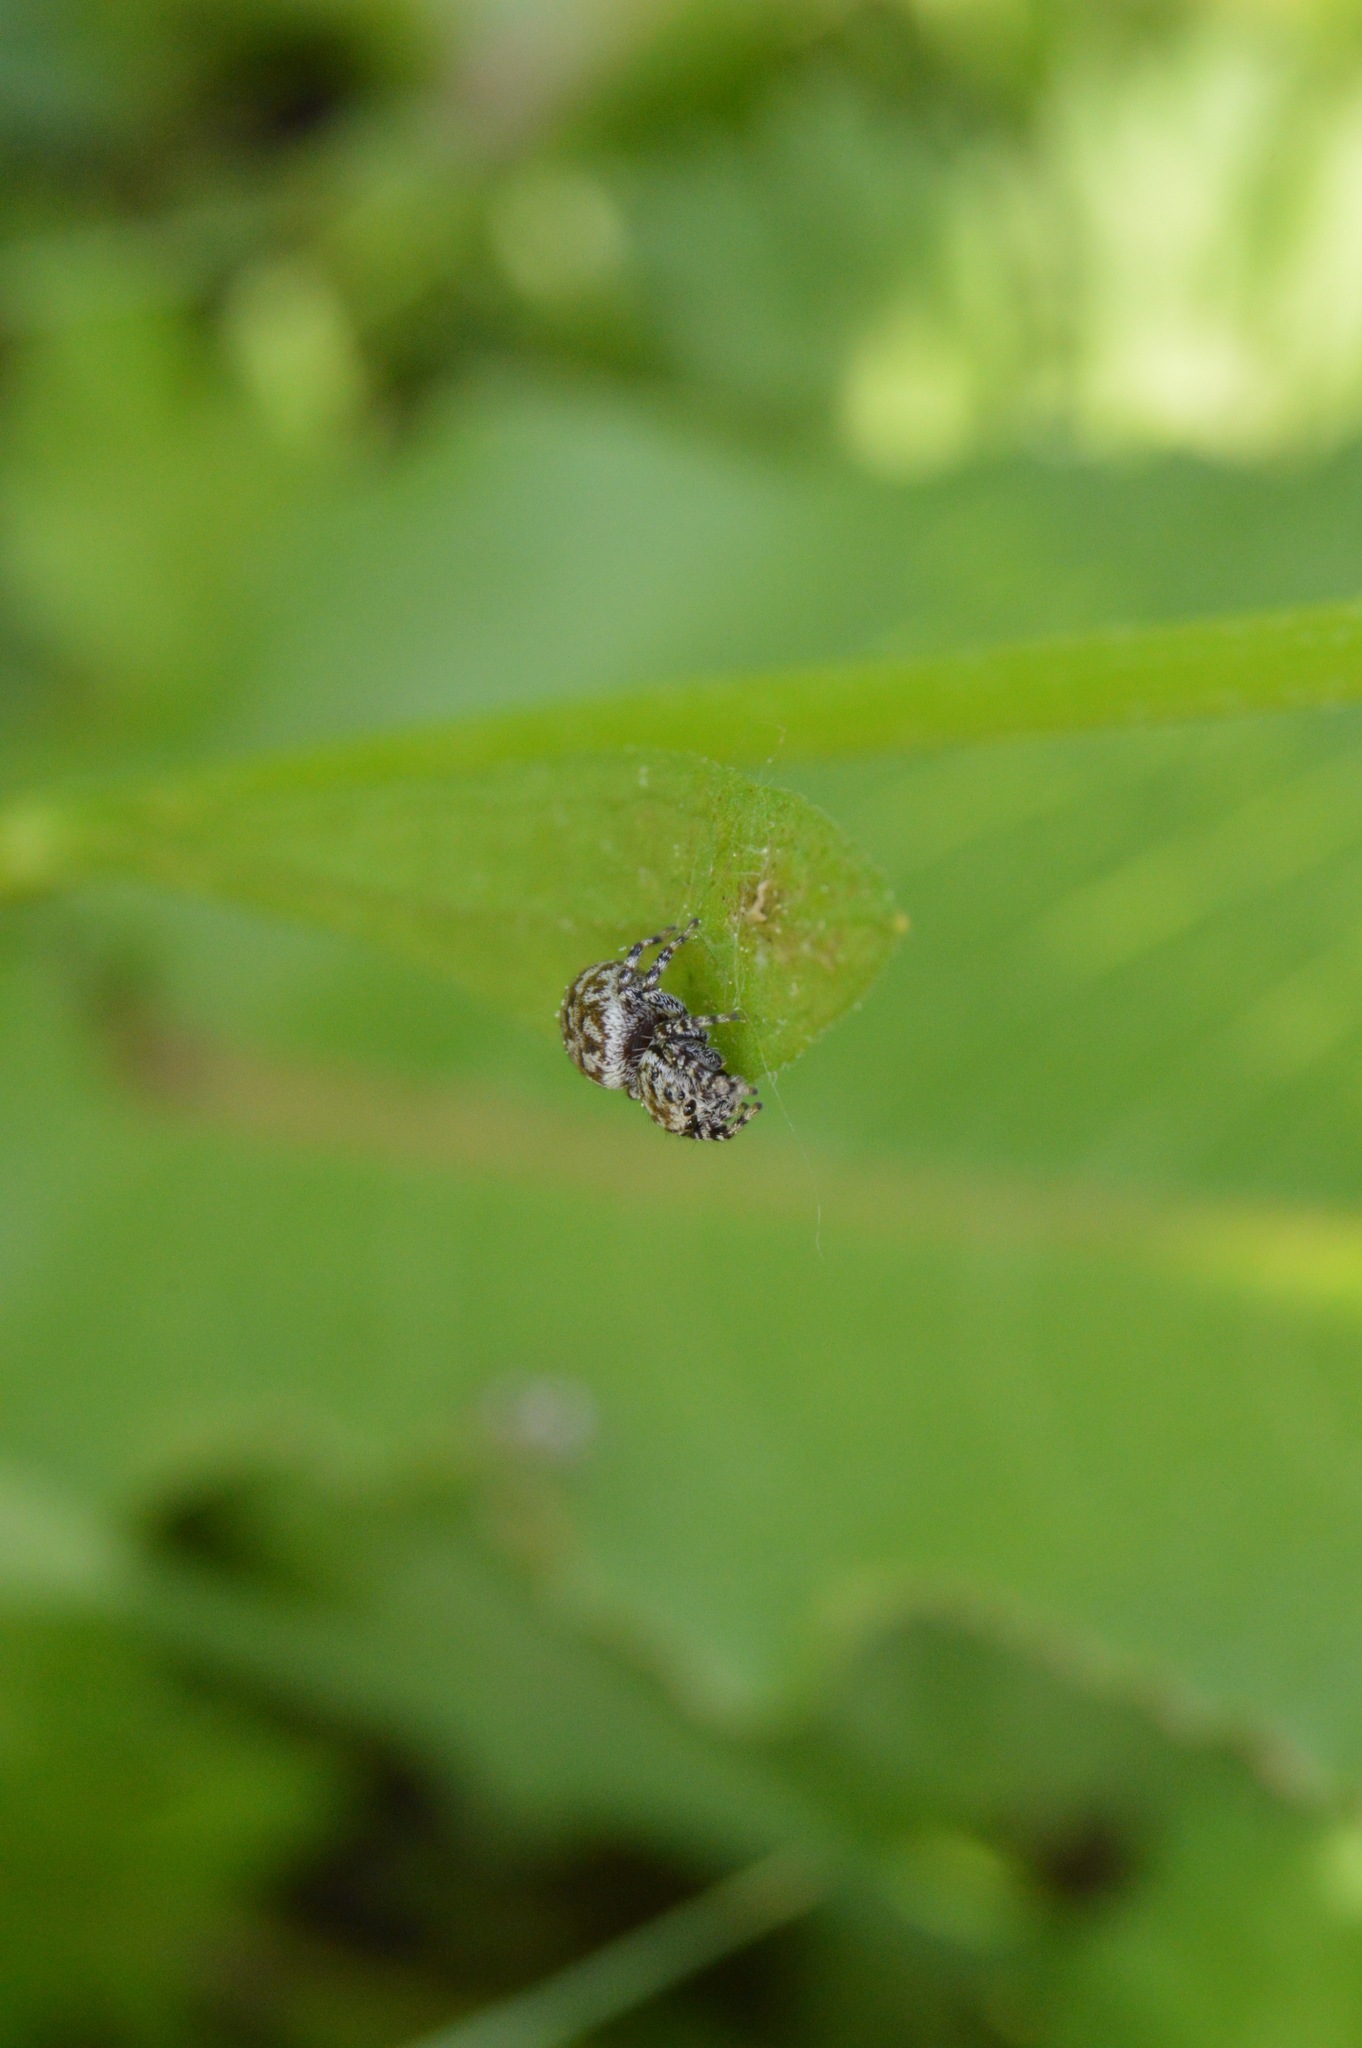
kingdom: Animalia
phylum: Arthropoda
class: Arachnida
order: Araneae
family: Salticidae
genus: Pelegrina
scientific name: Pelegrina galathea
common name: Jumping spiders
